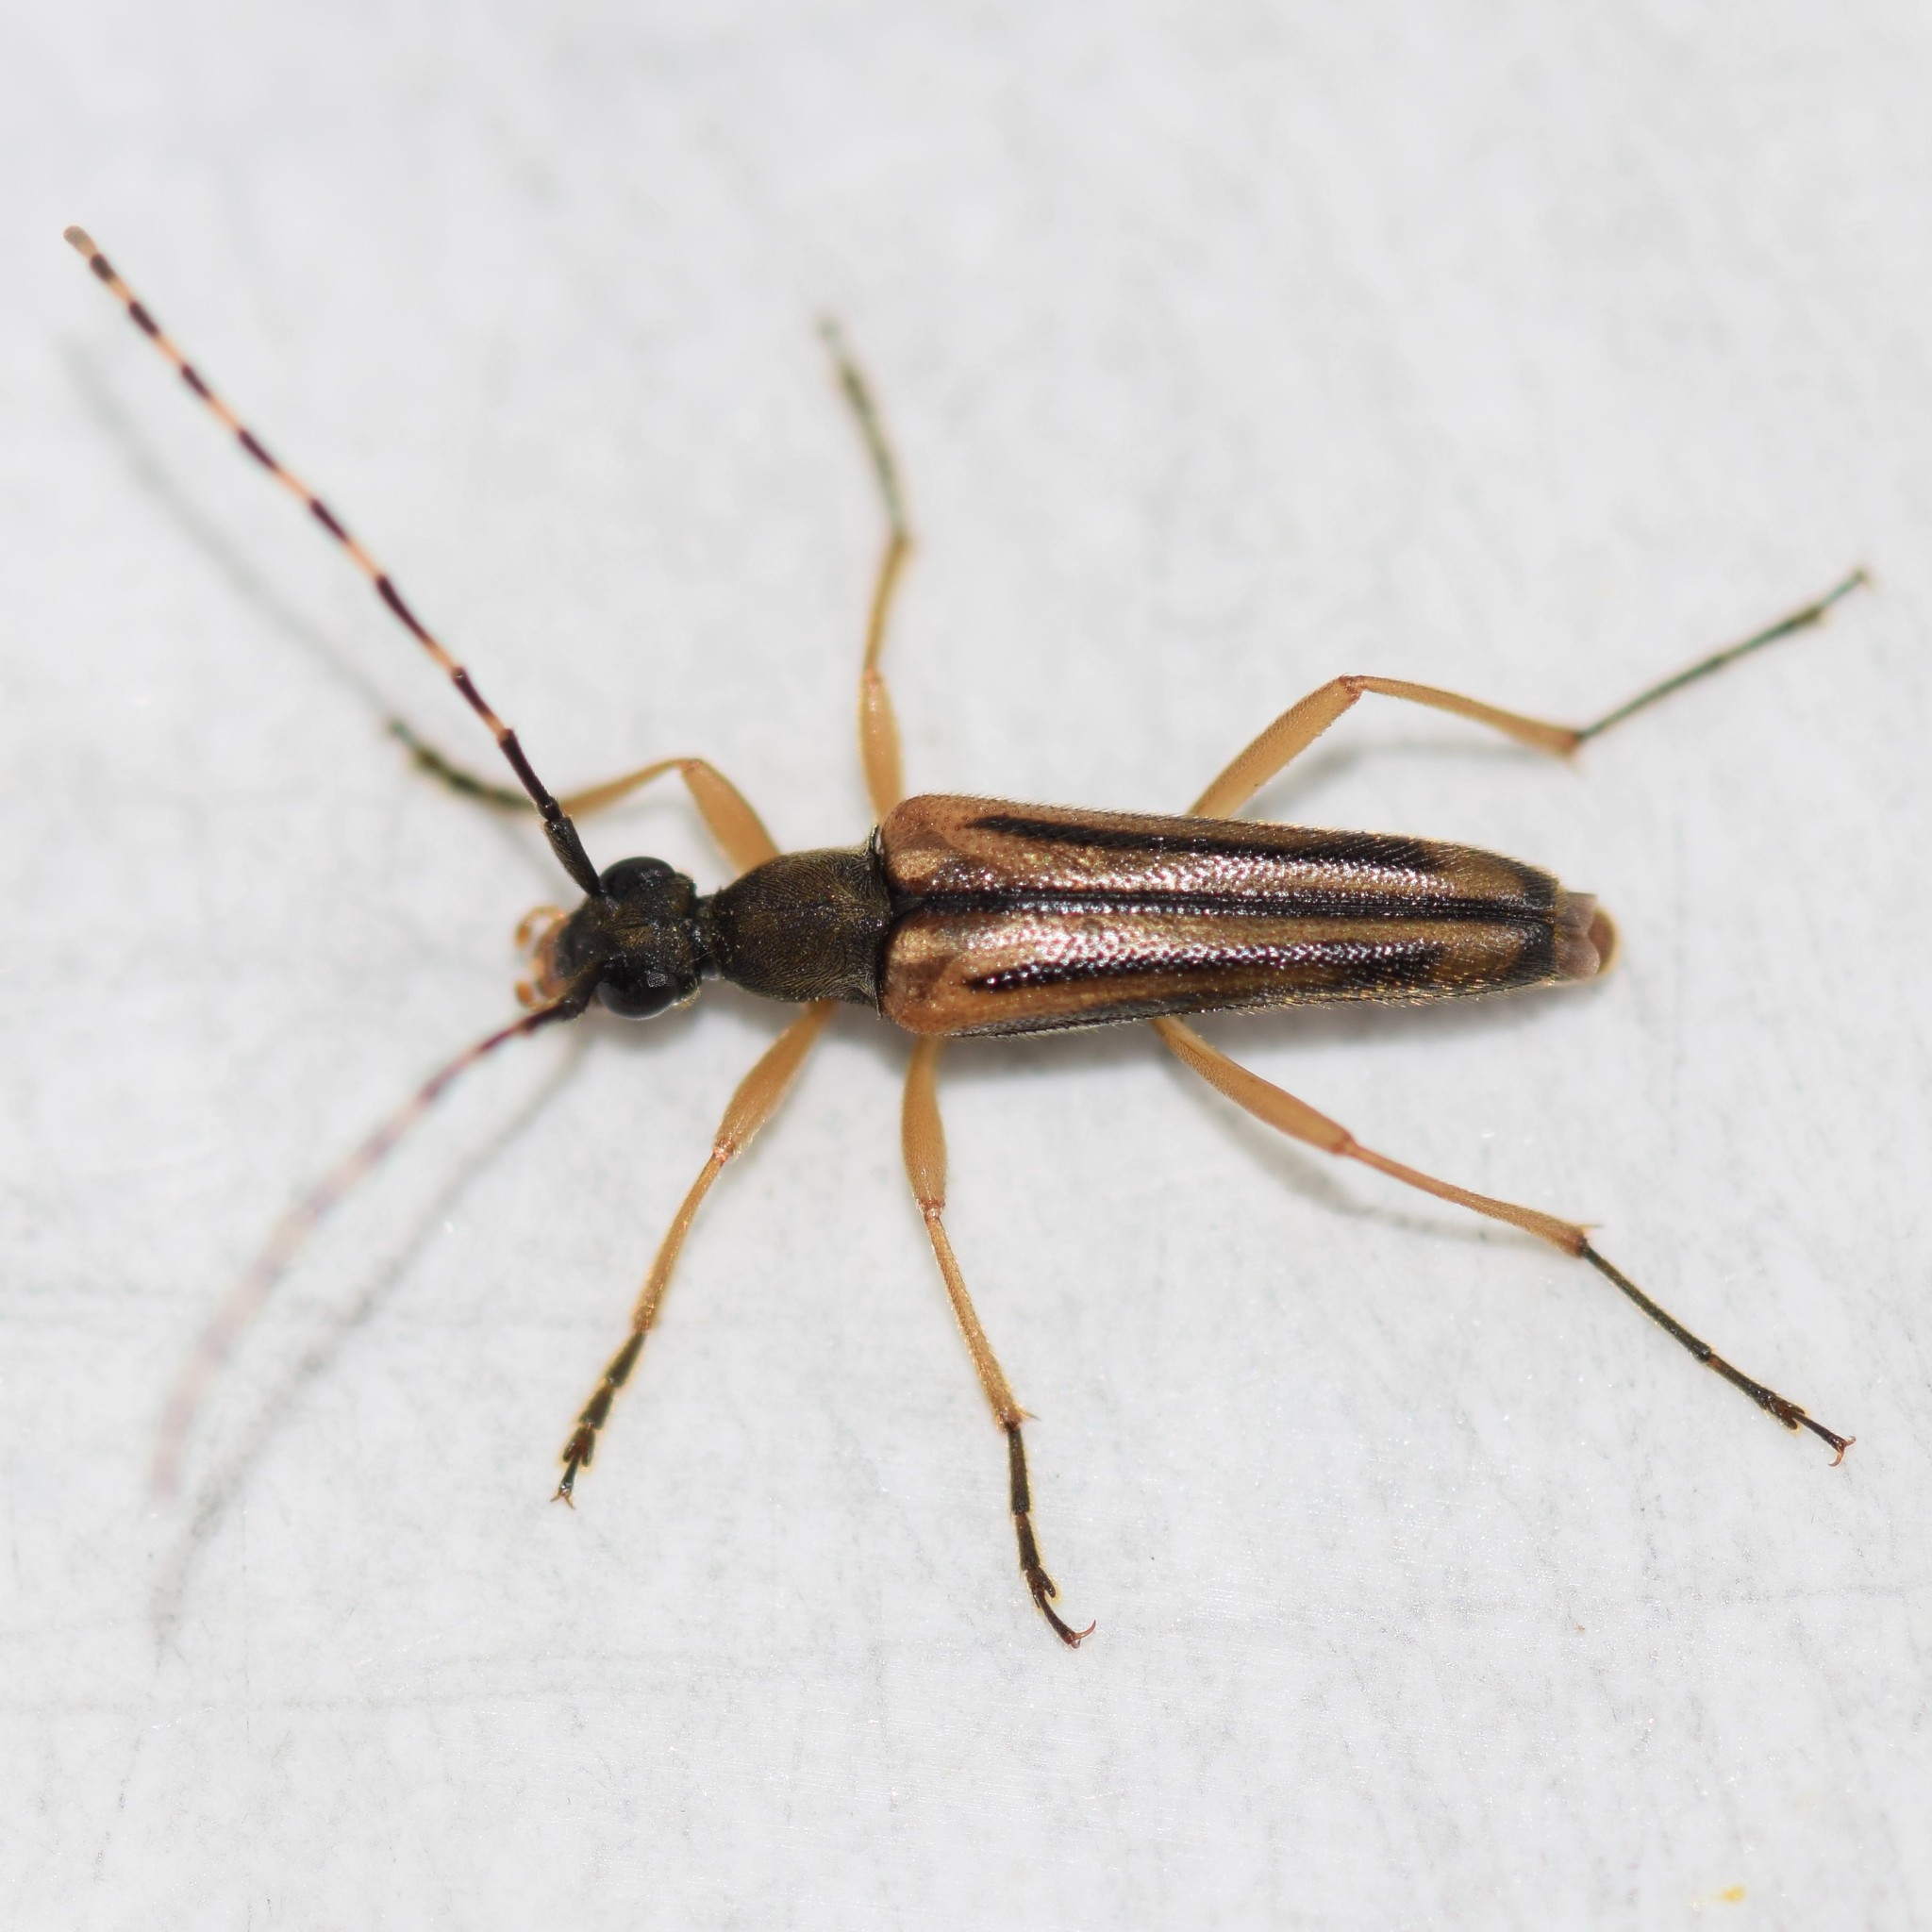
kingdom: Animalia
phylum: Arthropoda
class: Insecta
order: Coleoptera
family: Cerambycidae
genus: Analeptura
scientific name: Analeptura lineola
